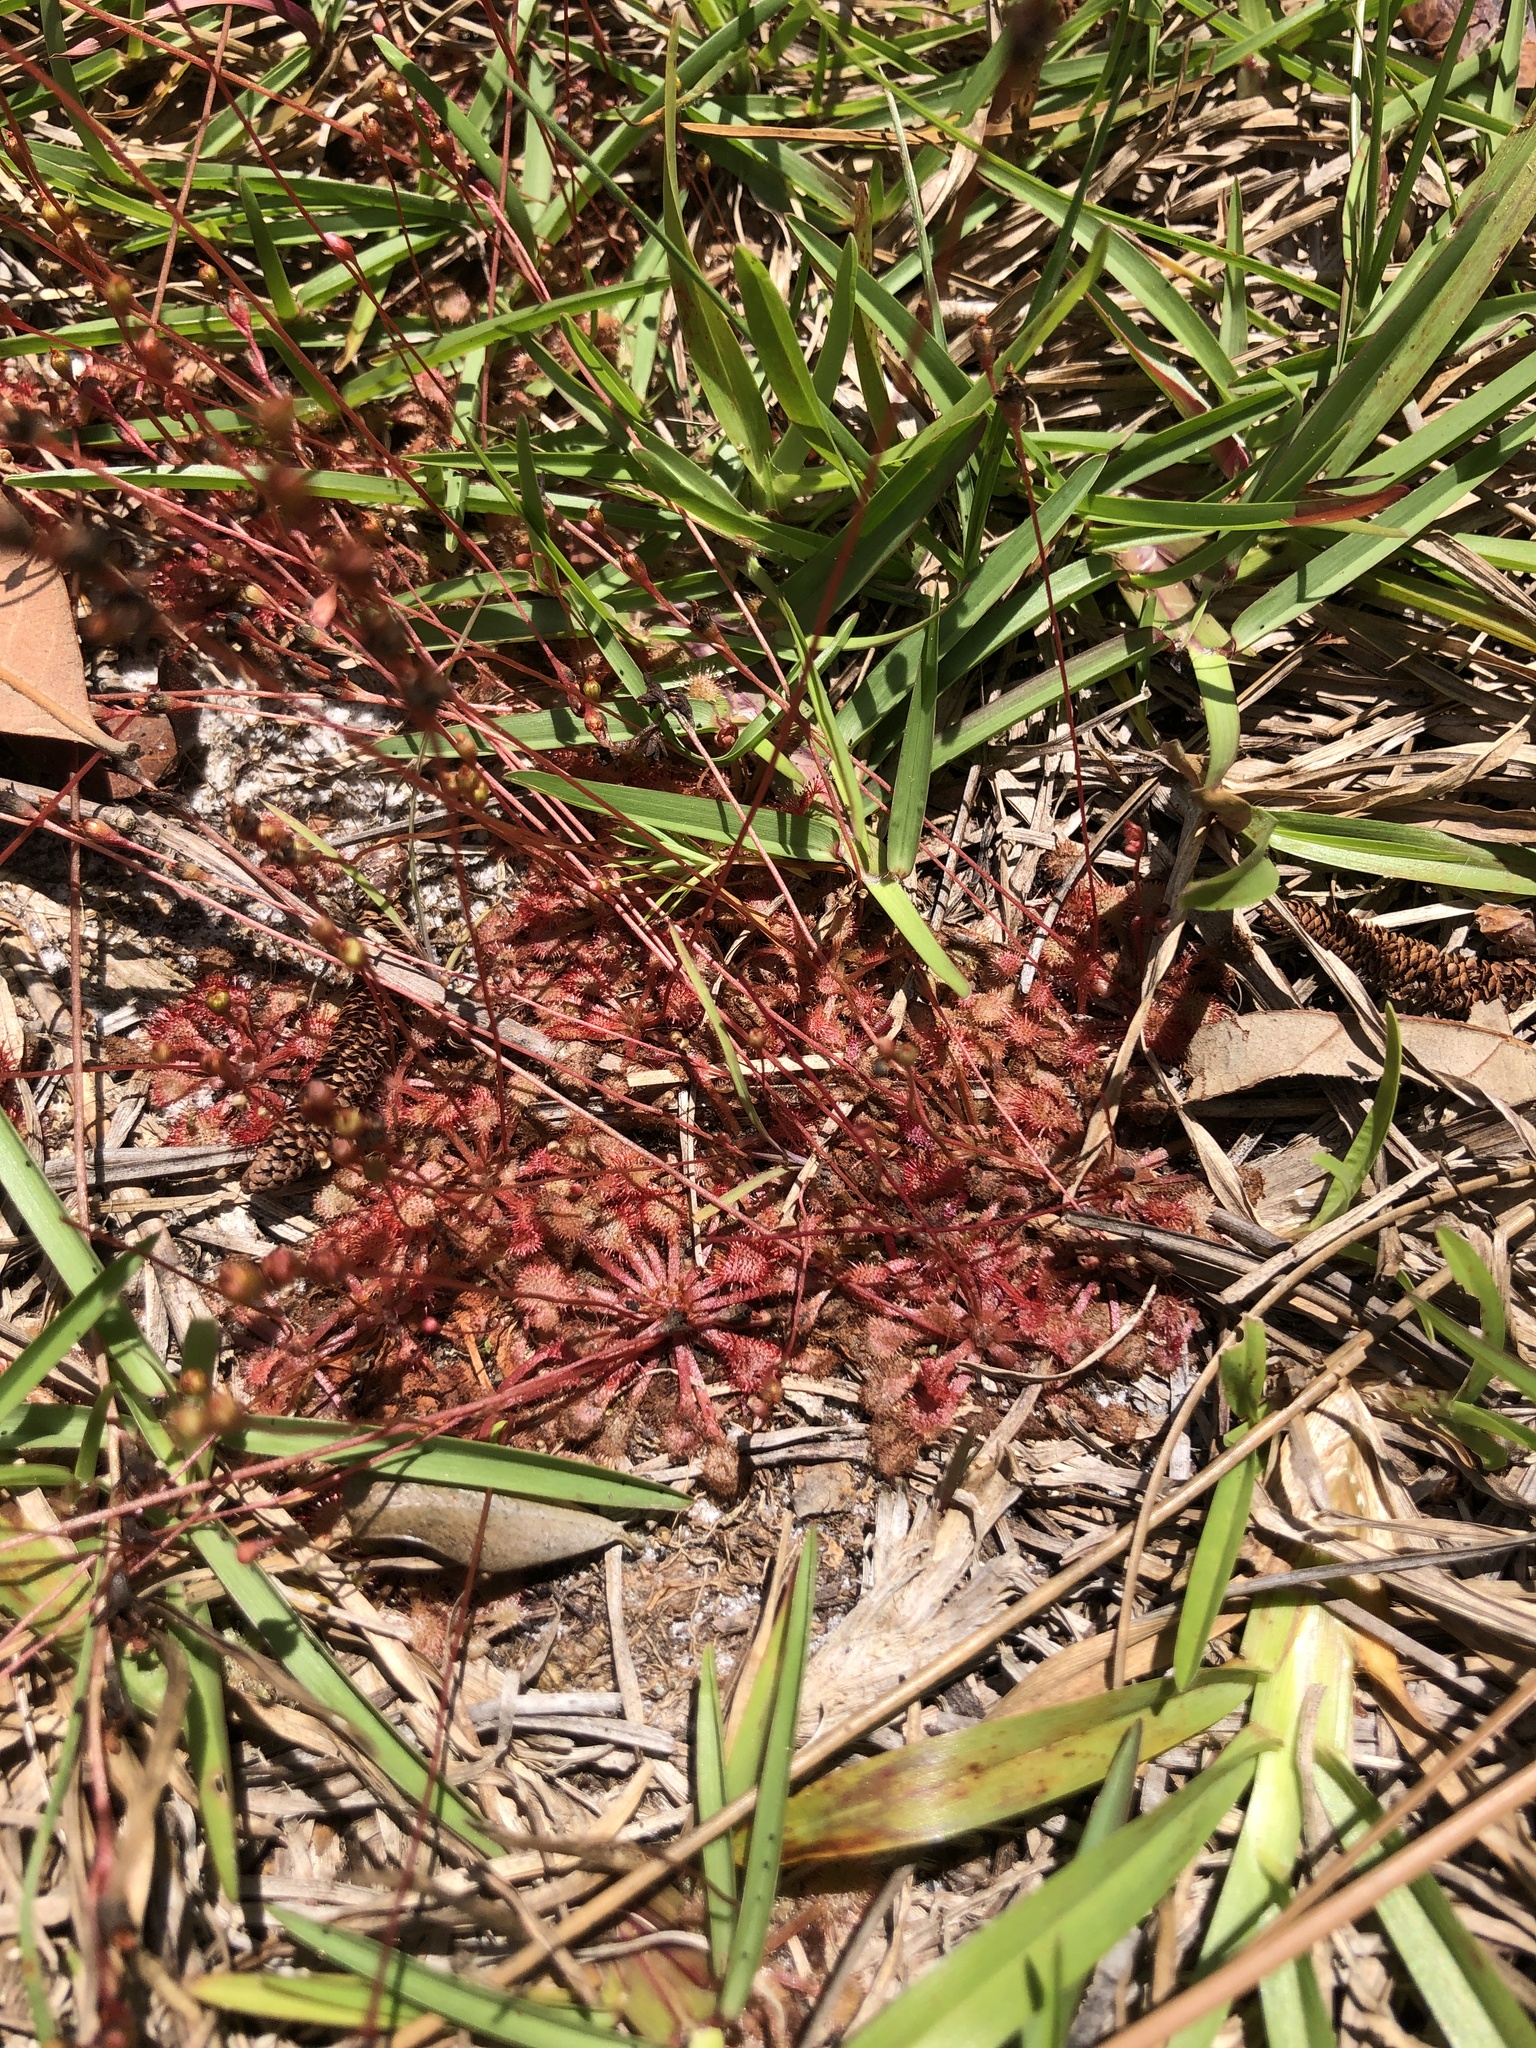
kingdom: Plantae
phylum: Tracheophyta
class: Magnoliopsida
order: Caryophyllales
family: Droseraceae
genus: Drosera
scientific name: Drosera capillaris
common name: Pink sundew
